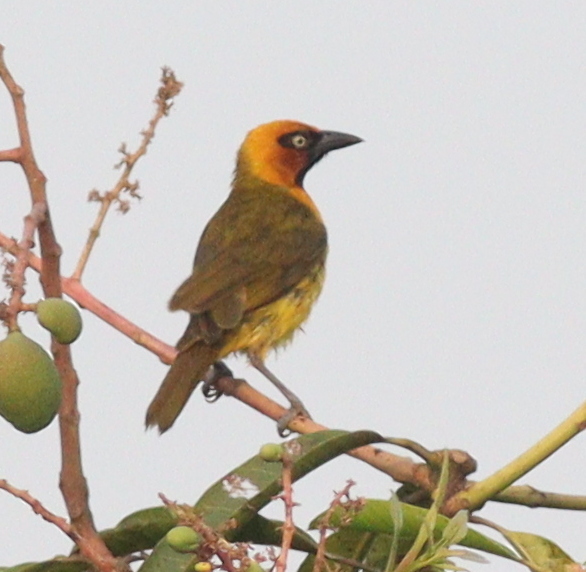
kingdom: Animalia
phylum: Chordata
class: Aves
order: Passeriformes
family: Ploceidae
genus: Ploceus
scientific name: Ploceus brachypterus
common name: Olive-naped weaver
